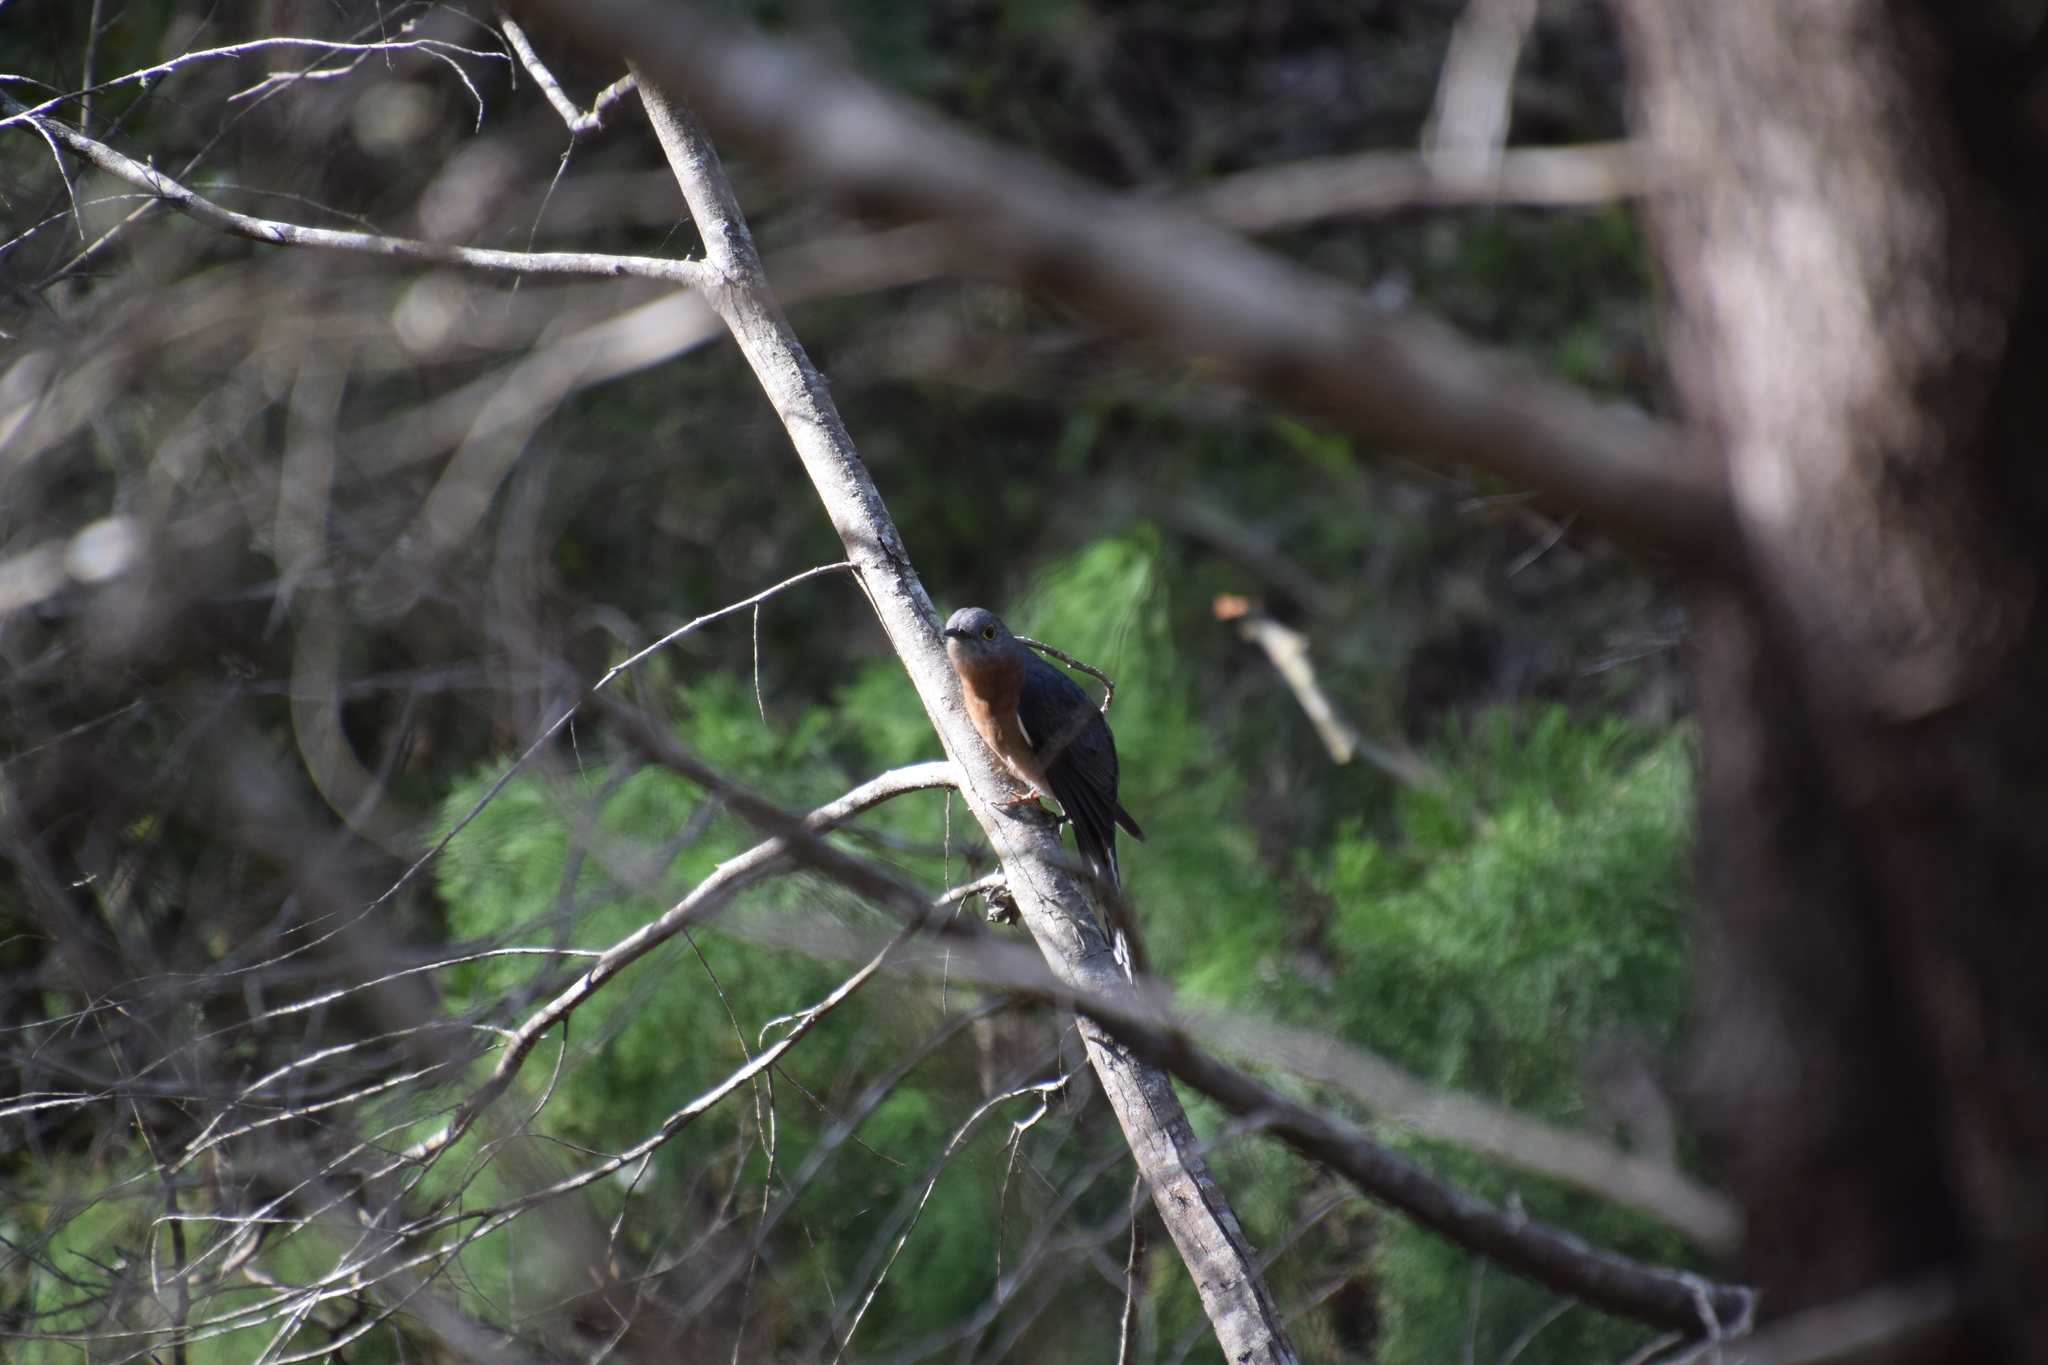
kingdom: Animalia
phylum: Chordata
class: Aves
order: Cuculiformes
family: Cuculidae
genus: Cacomantis
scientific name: Cacomantis flabelliformis
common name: Fan-tailed cuckoo
